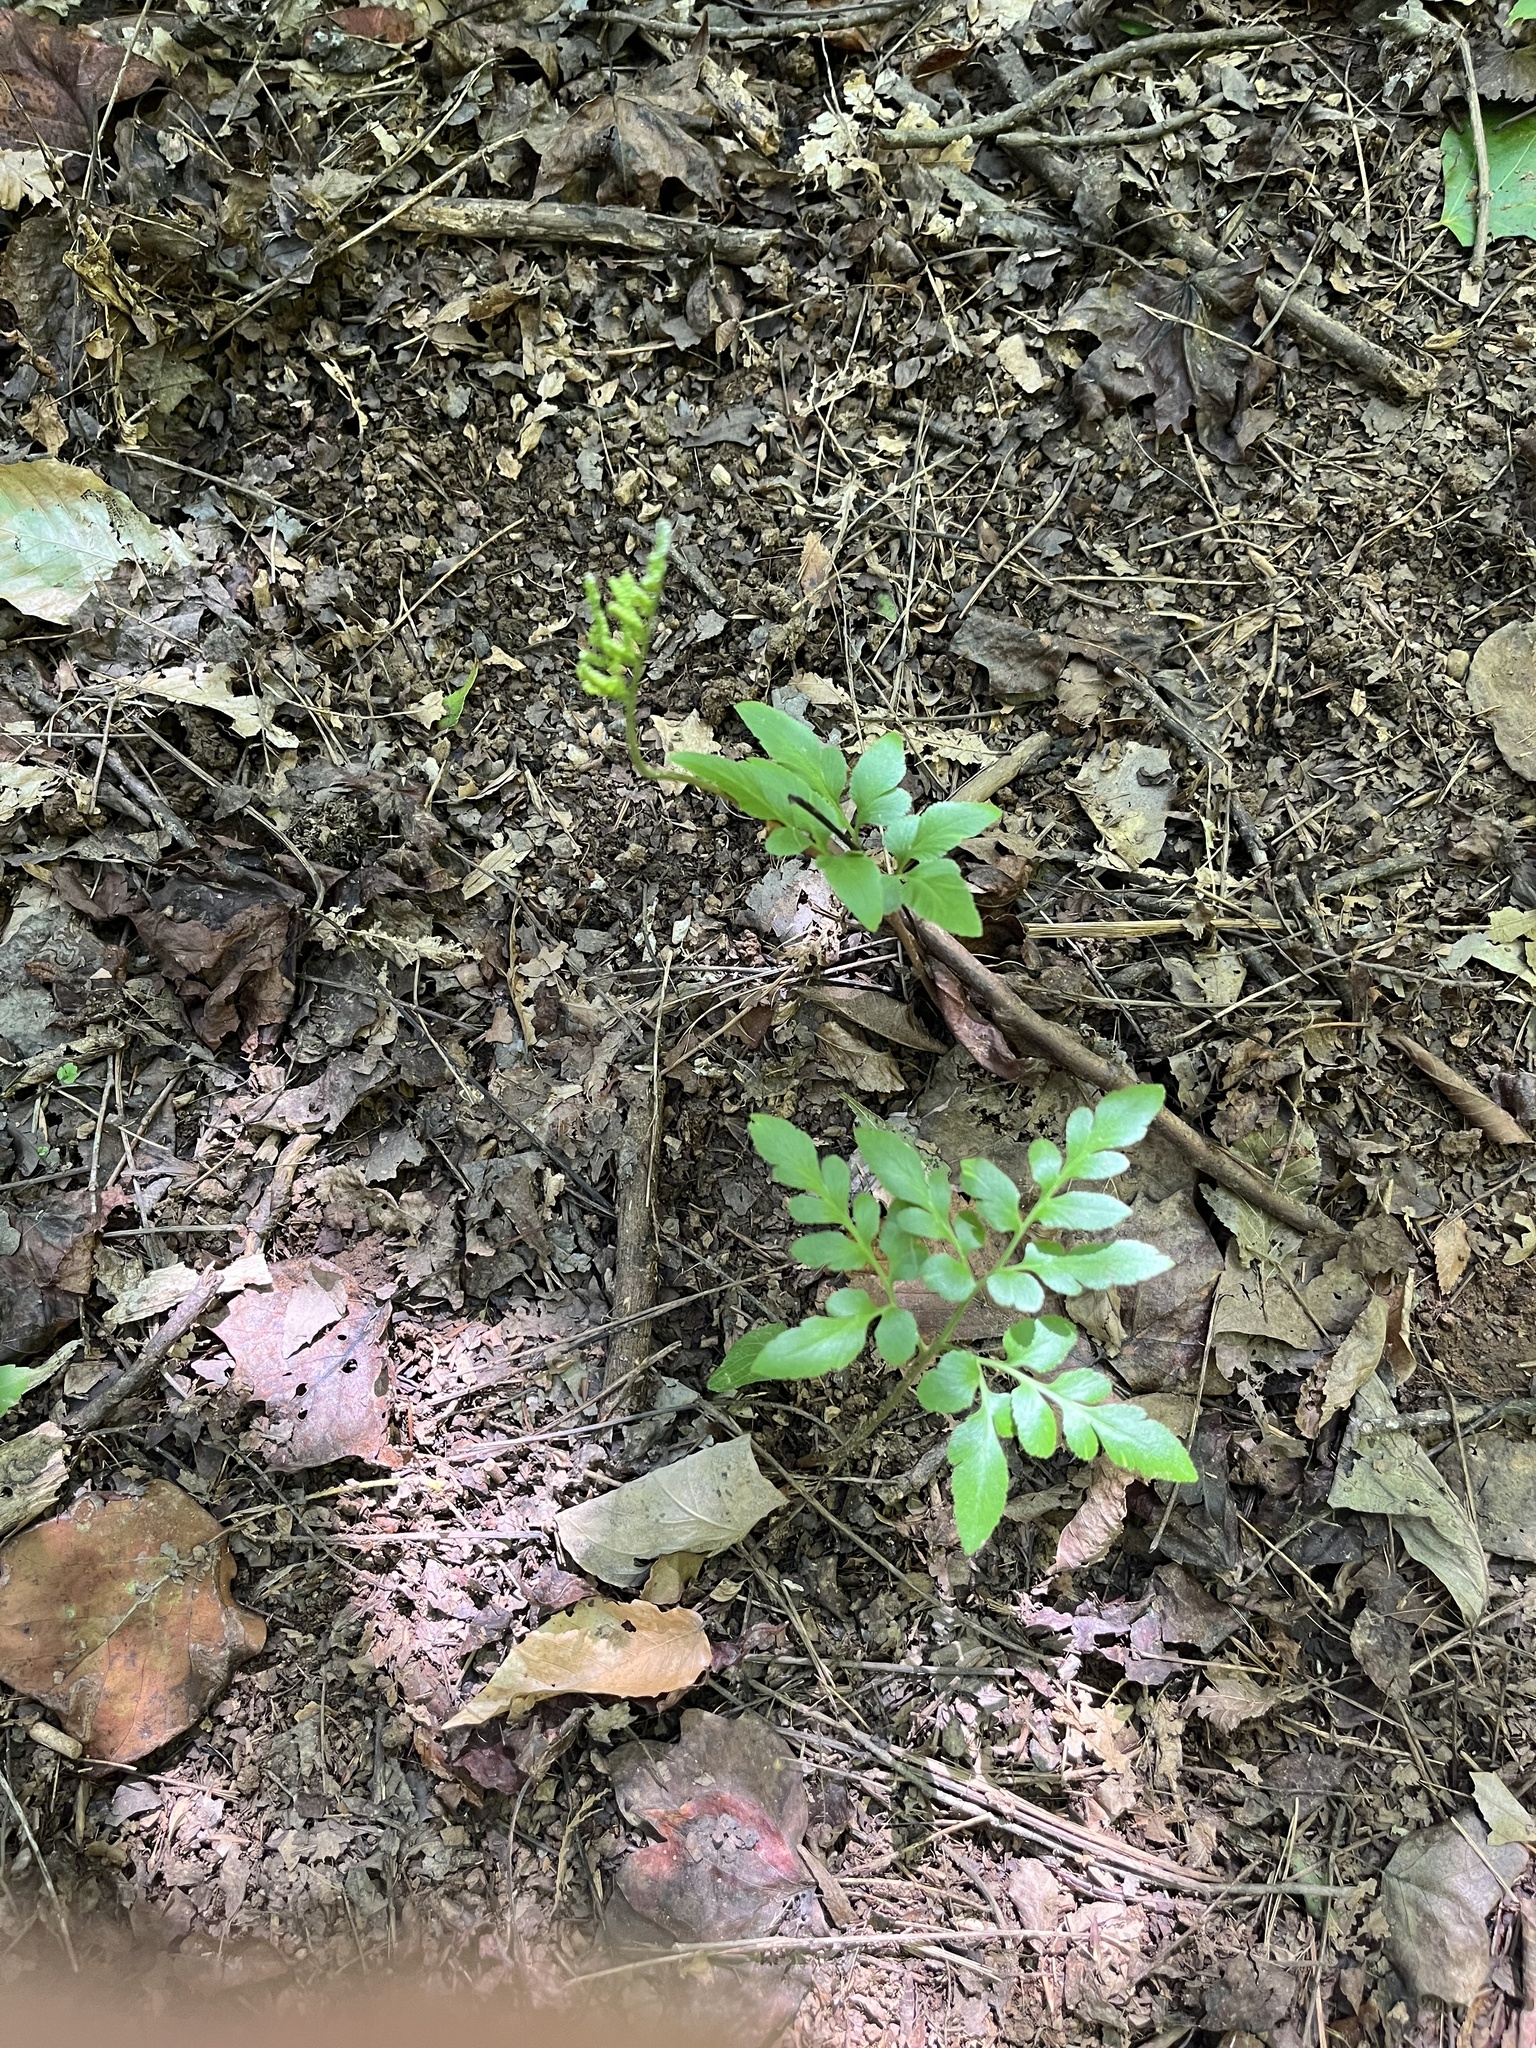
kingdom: Plantae
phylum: Tracheophyta
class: Polypodiopsida
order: Ophioglossales
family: Ophioglossaceae
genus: Sceptridium
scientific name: Sceptridium biternatum
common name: Sparse-lobed grapefern
